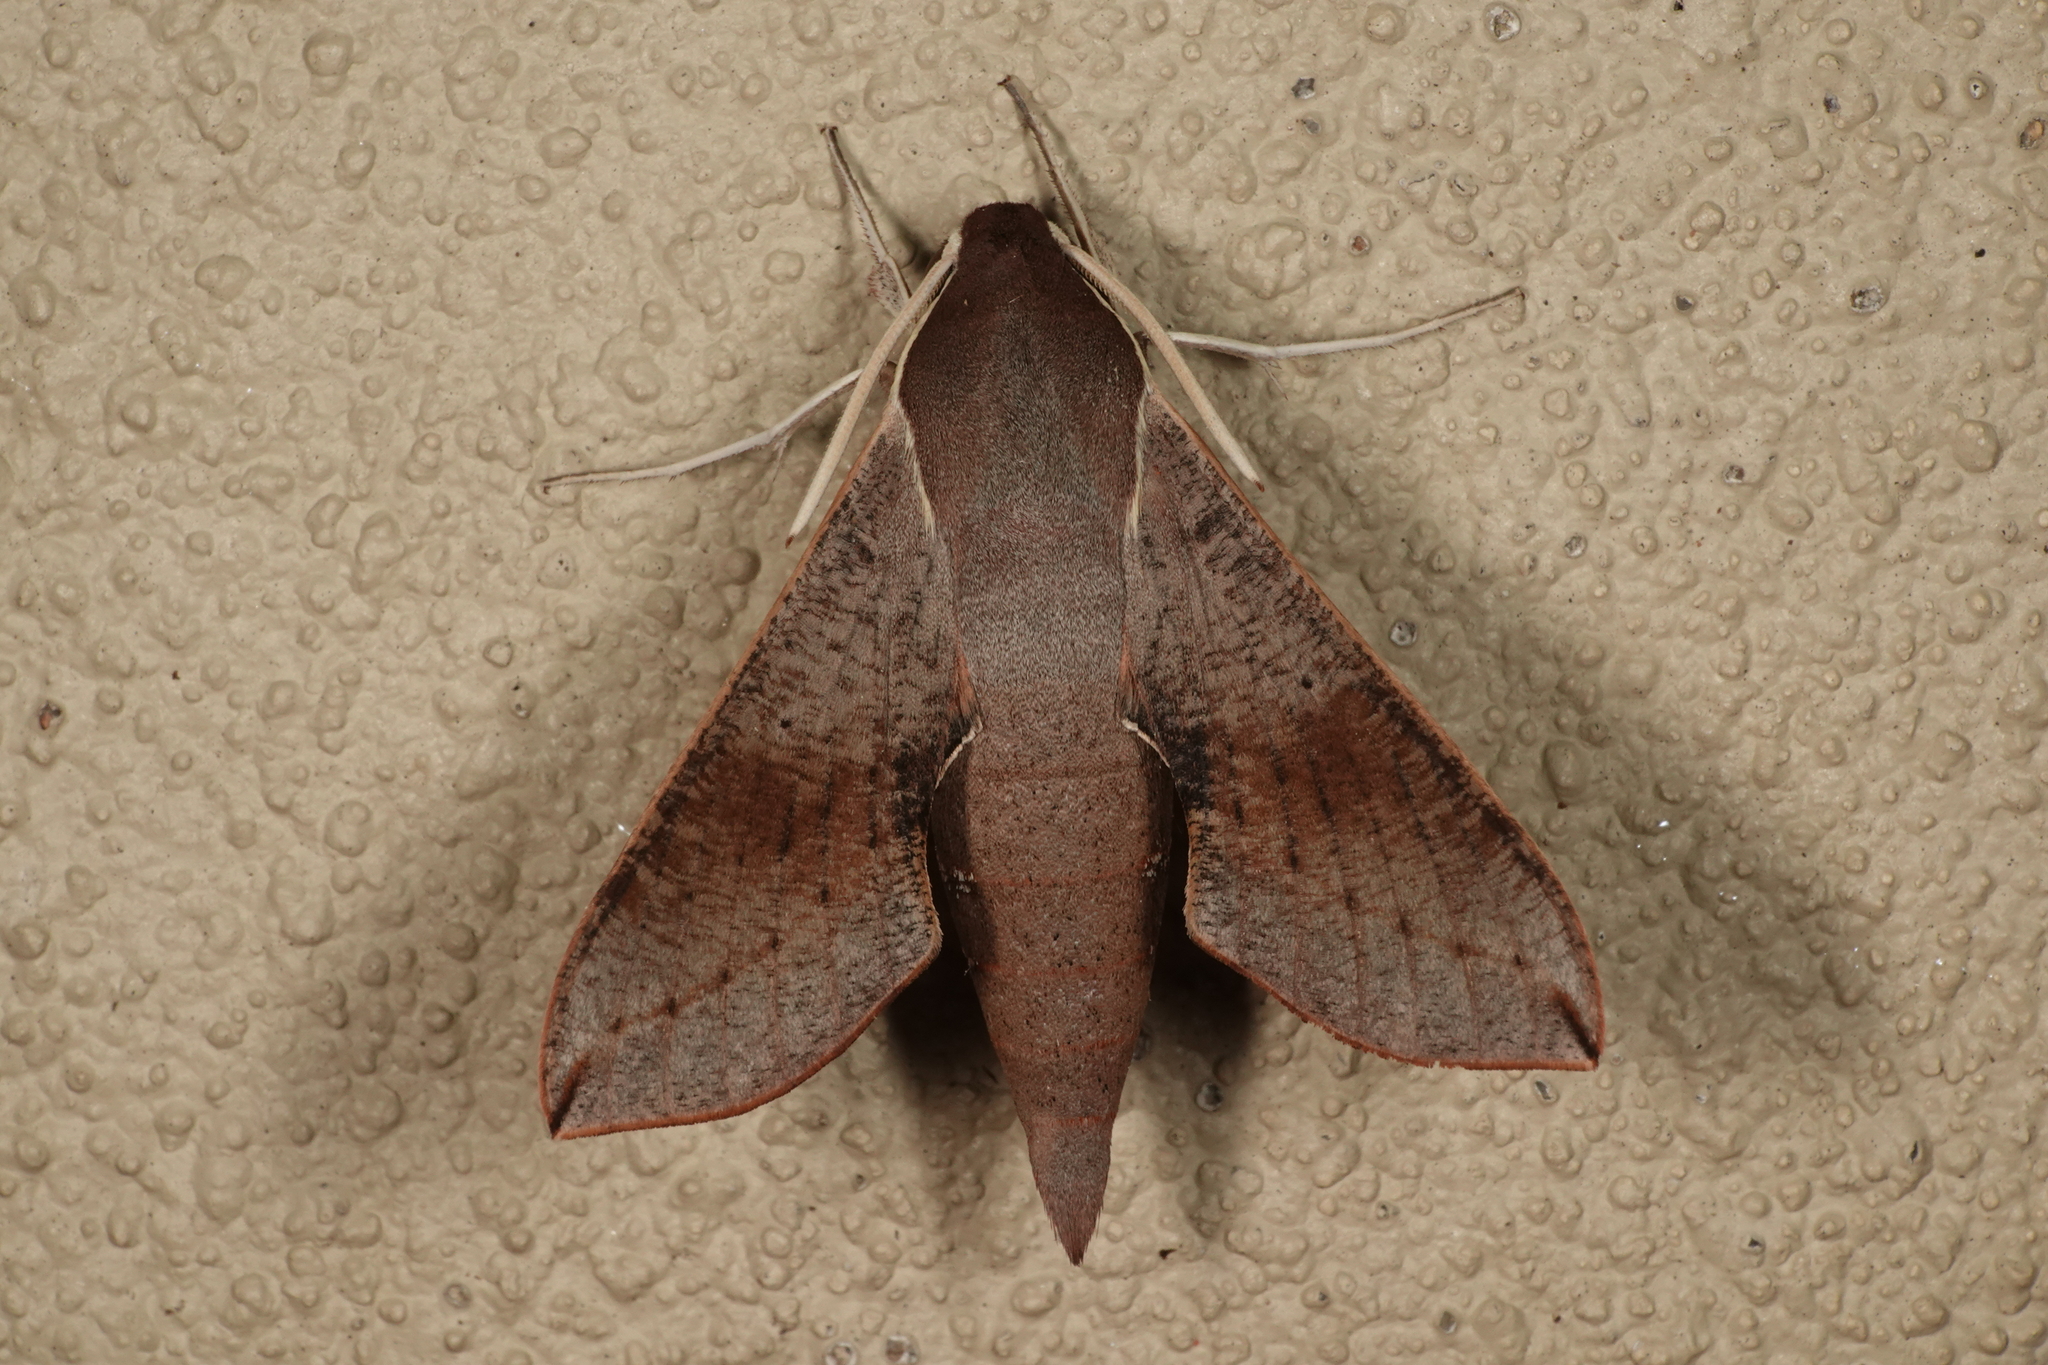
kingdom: Animalia
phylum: Arthropoda
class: Insecta
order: Lepidoptera
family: Sphingidae
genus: Hippotion
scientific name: Hippotion scrofa
